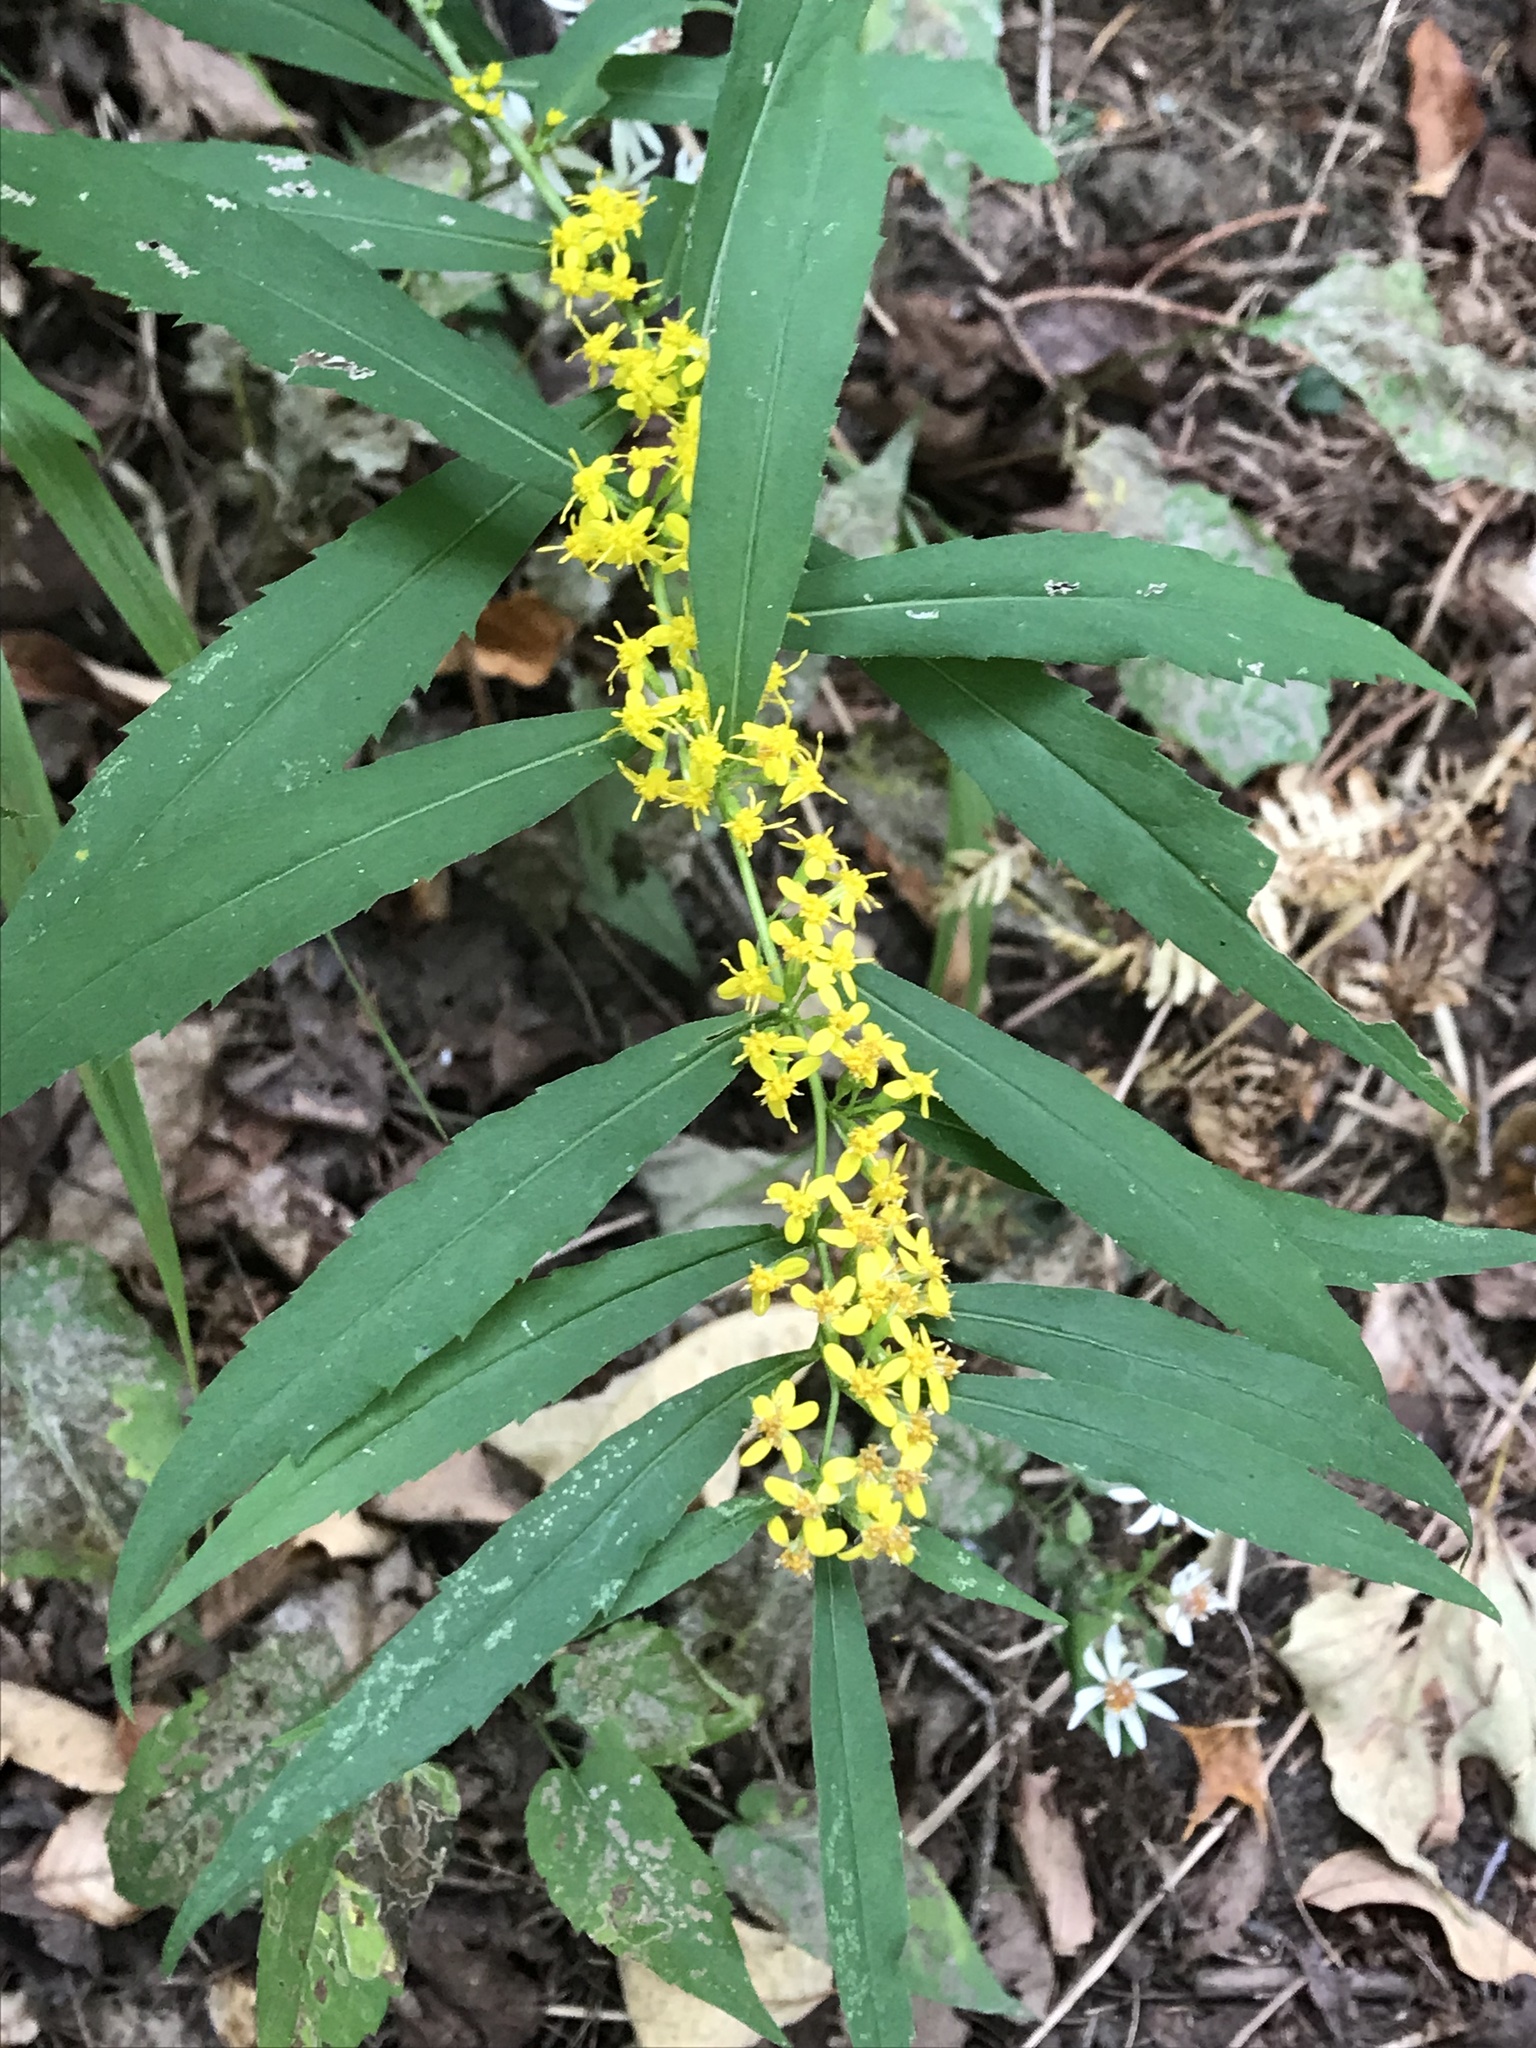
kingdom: Plantae
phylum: Tracheophyta
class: Magnoliopsida
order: Asterales
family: Asteraceae
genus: Solidago
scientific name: Solidago caesia
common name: Woodland goldenrod
